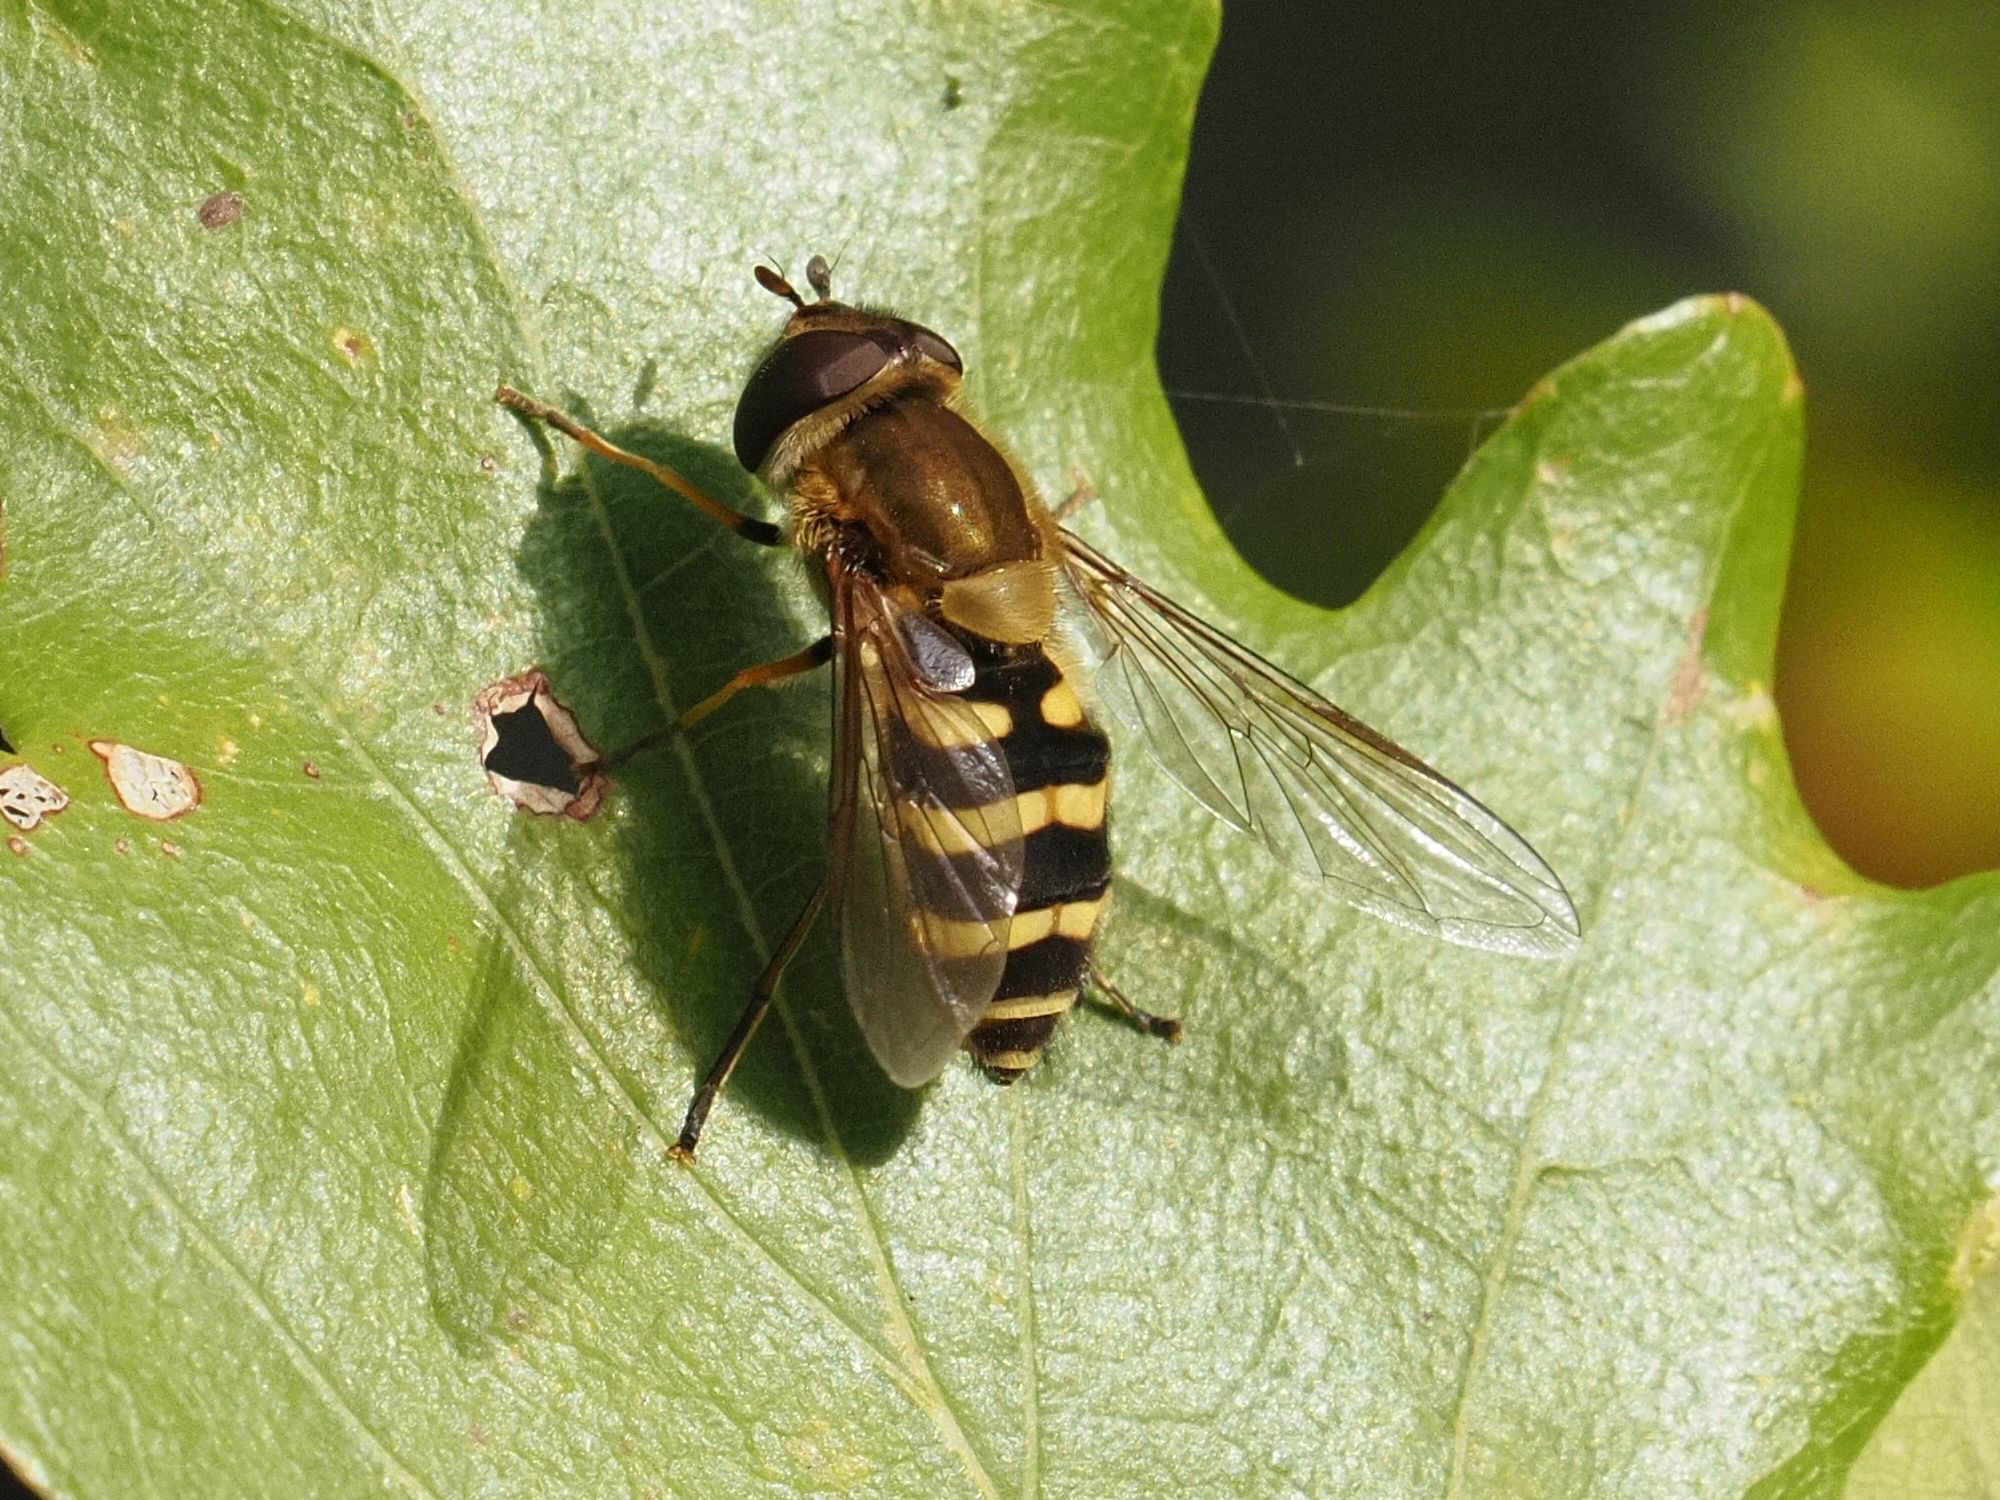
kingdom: Animalia
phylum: Arthropoda
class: Insecta
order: Diptera
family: Syrphidae
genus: Syrphus
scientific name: Syrphus
